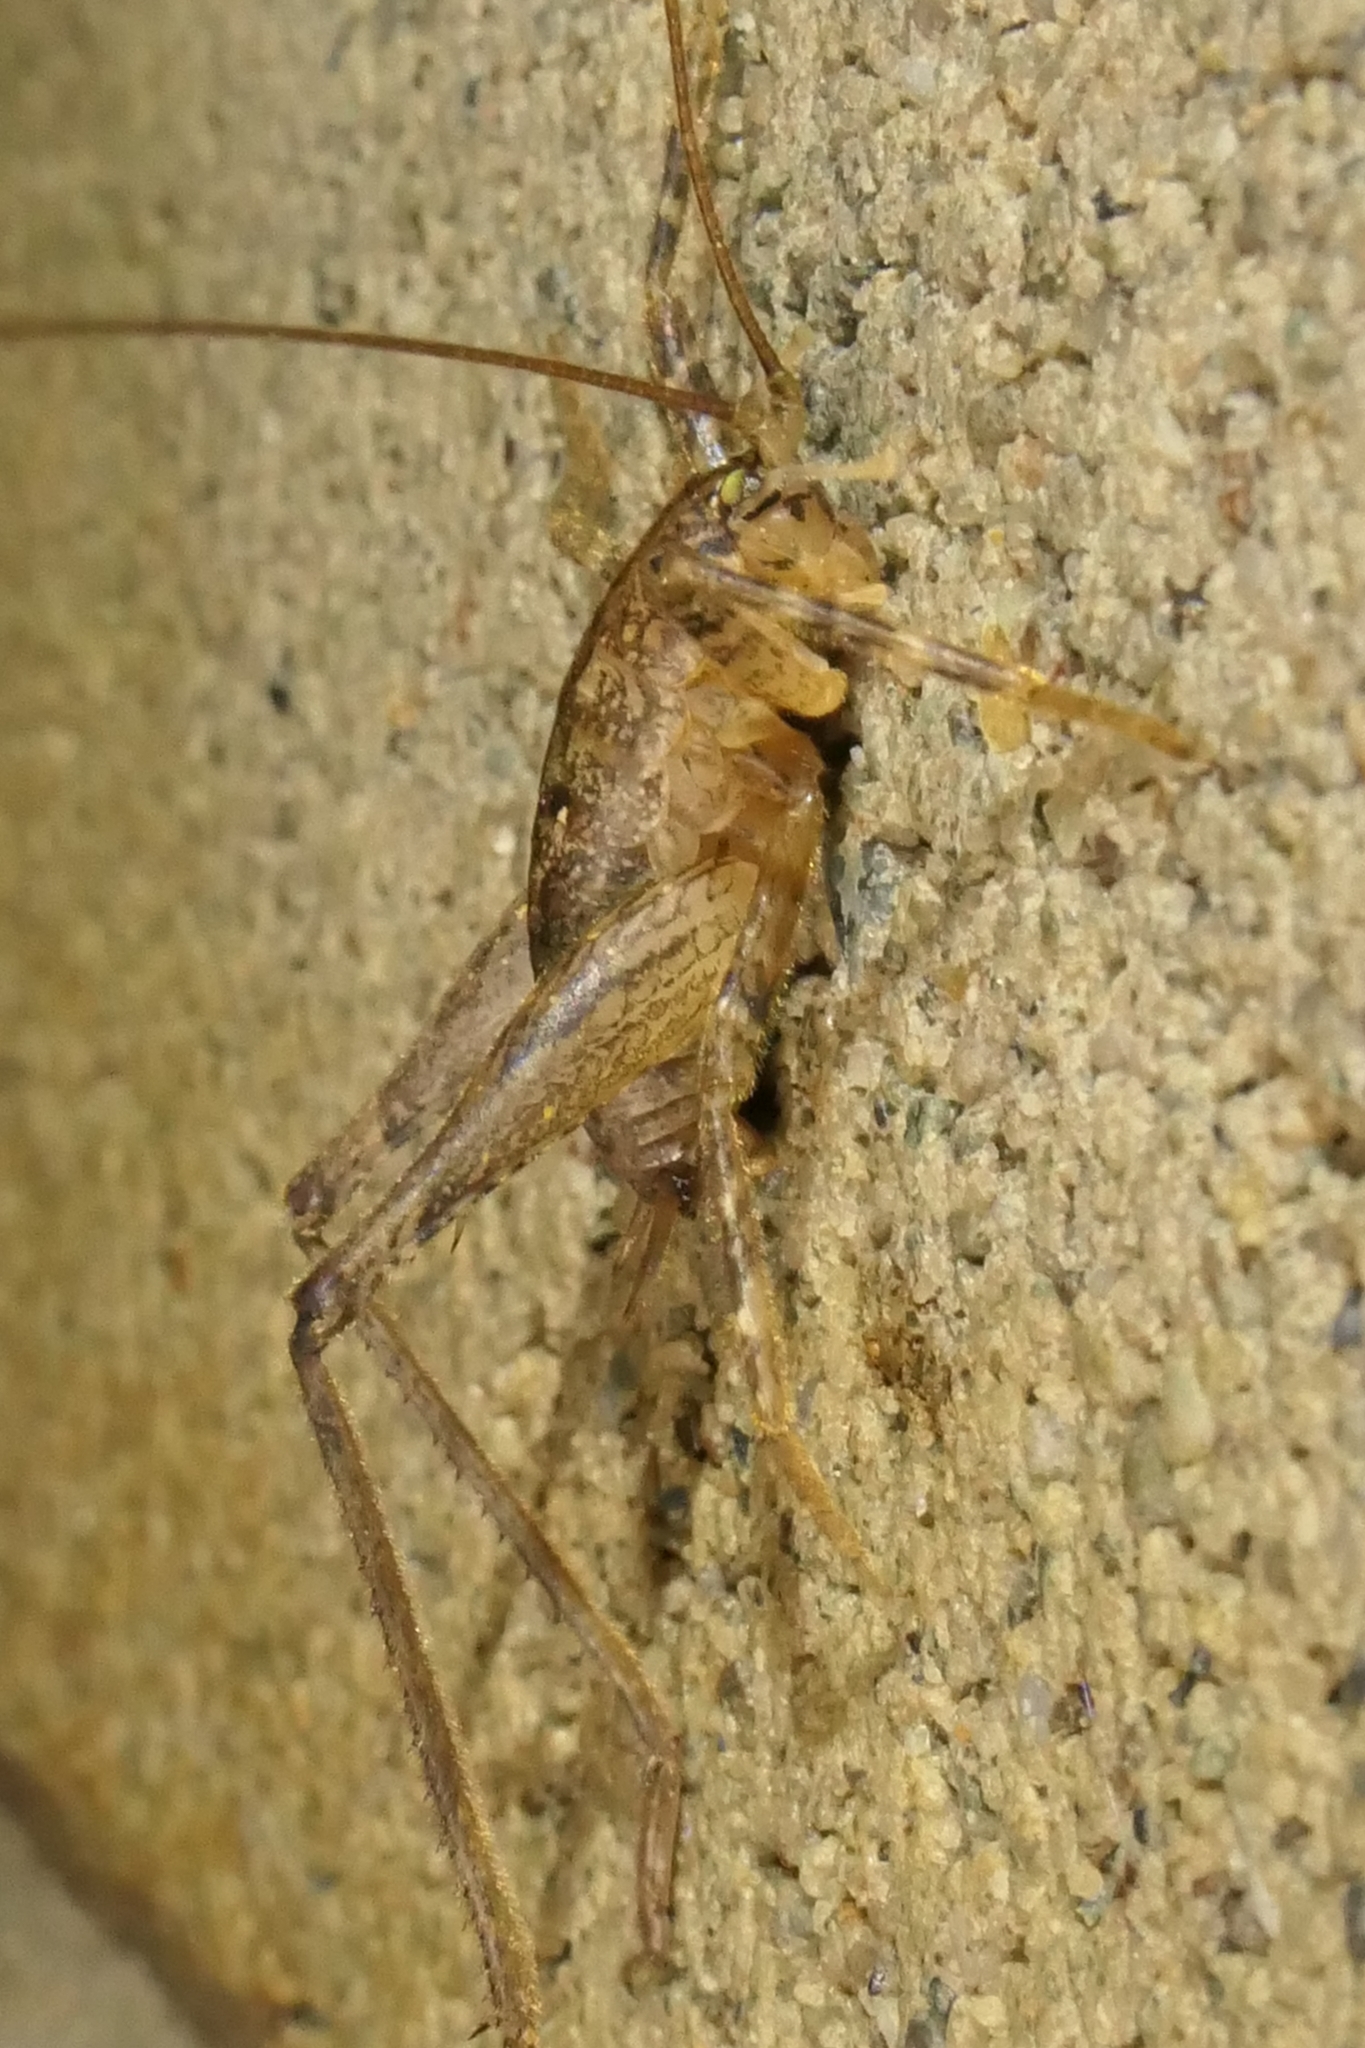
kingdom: Animalia
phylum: Arthropoda
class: Insecta
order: Orthoptera
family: Rhaphidophoridae
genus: Isoplectron
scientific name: Isoplectron armatum
